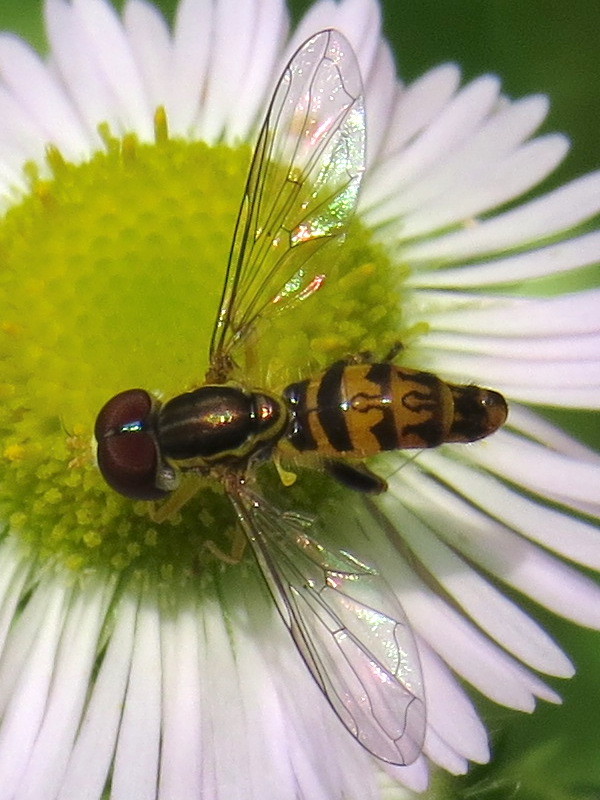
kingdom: Animalia
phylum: Arthropoda
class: Insecta
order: Diptera
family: Syrphidae
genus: Toxomerus
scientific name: Toxomerus geminatus
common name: Eastern calligrapher
